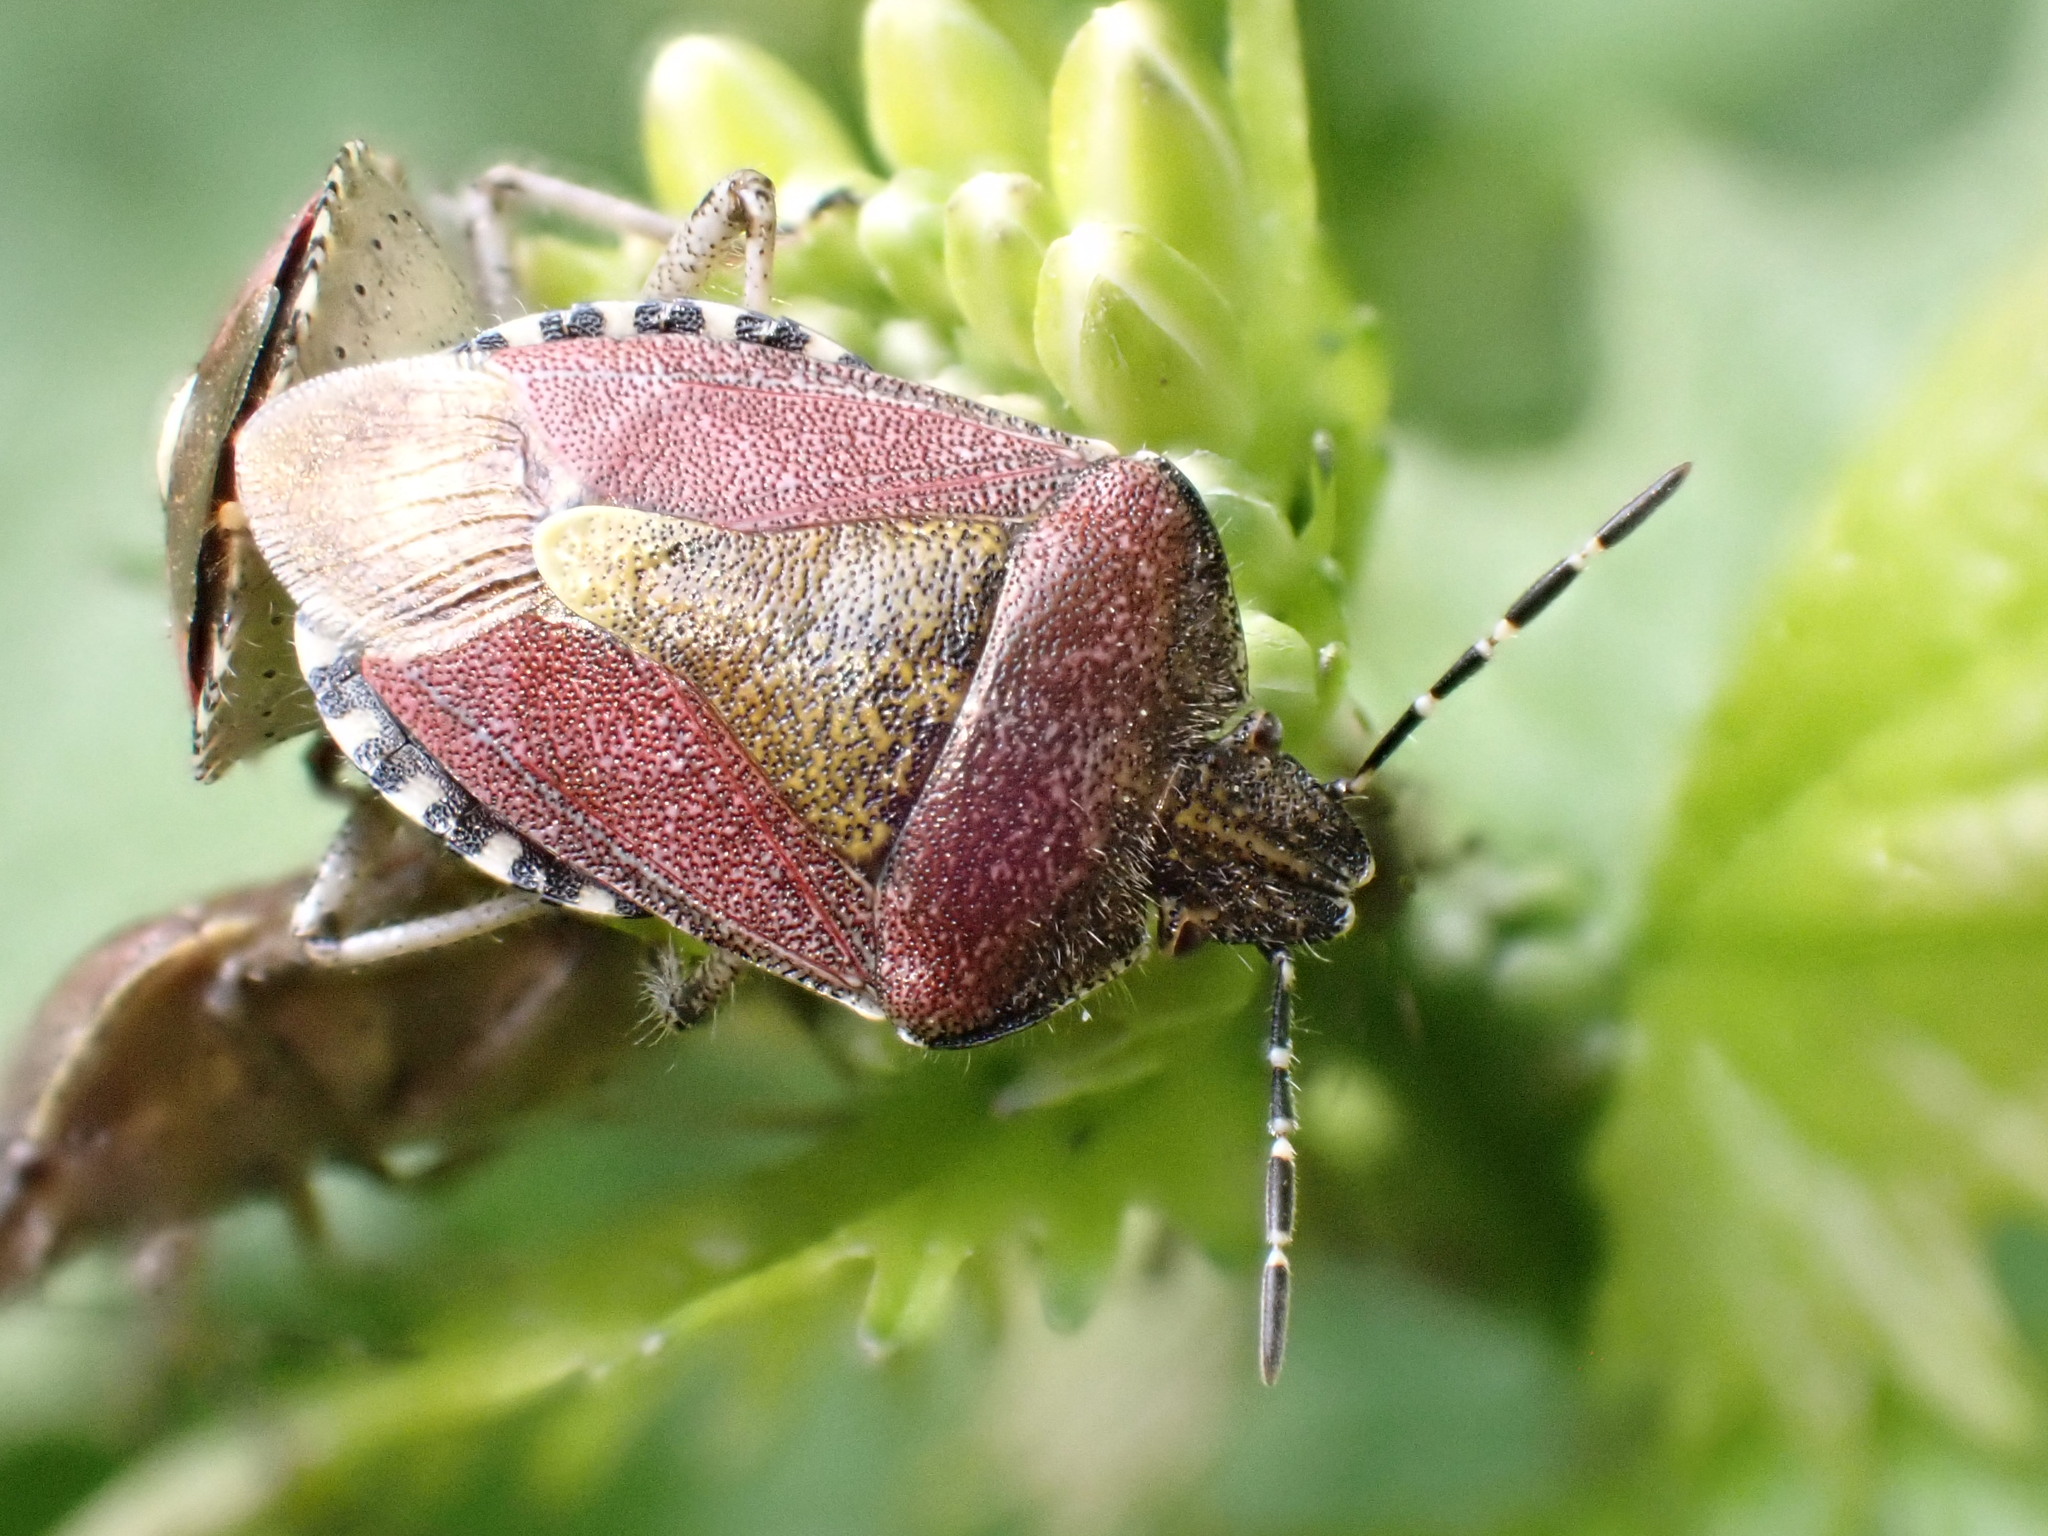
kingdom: Animalia
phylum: Arthropoda
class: Insecta
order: Hemiptera
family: Pentatomidae
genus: Dolycoris
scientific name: Dolycoris baccarum
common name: Sloe bug
